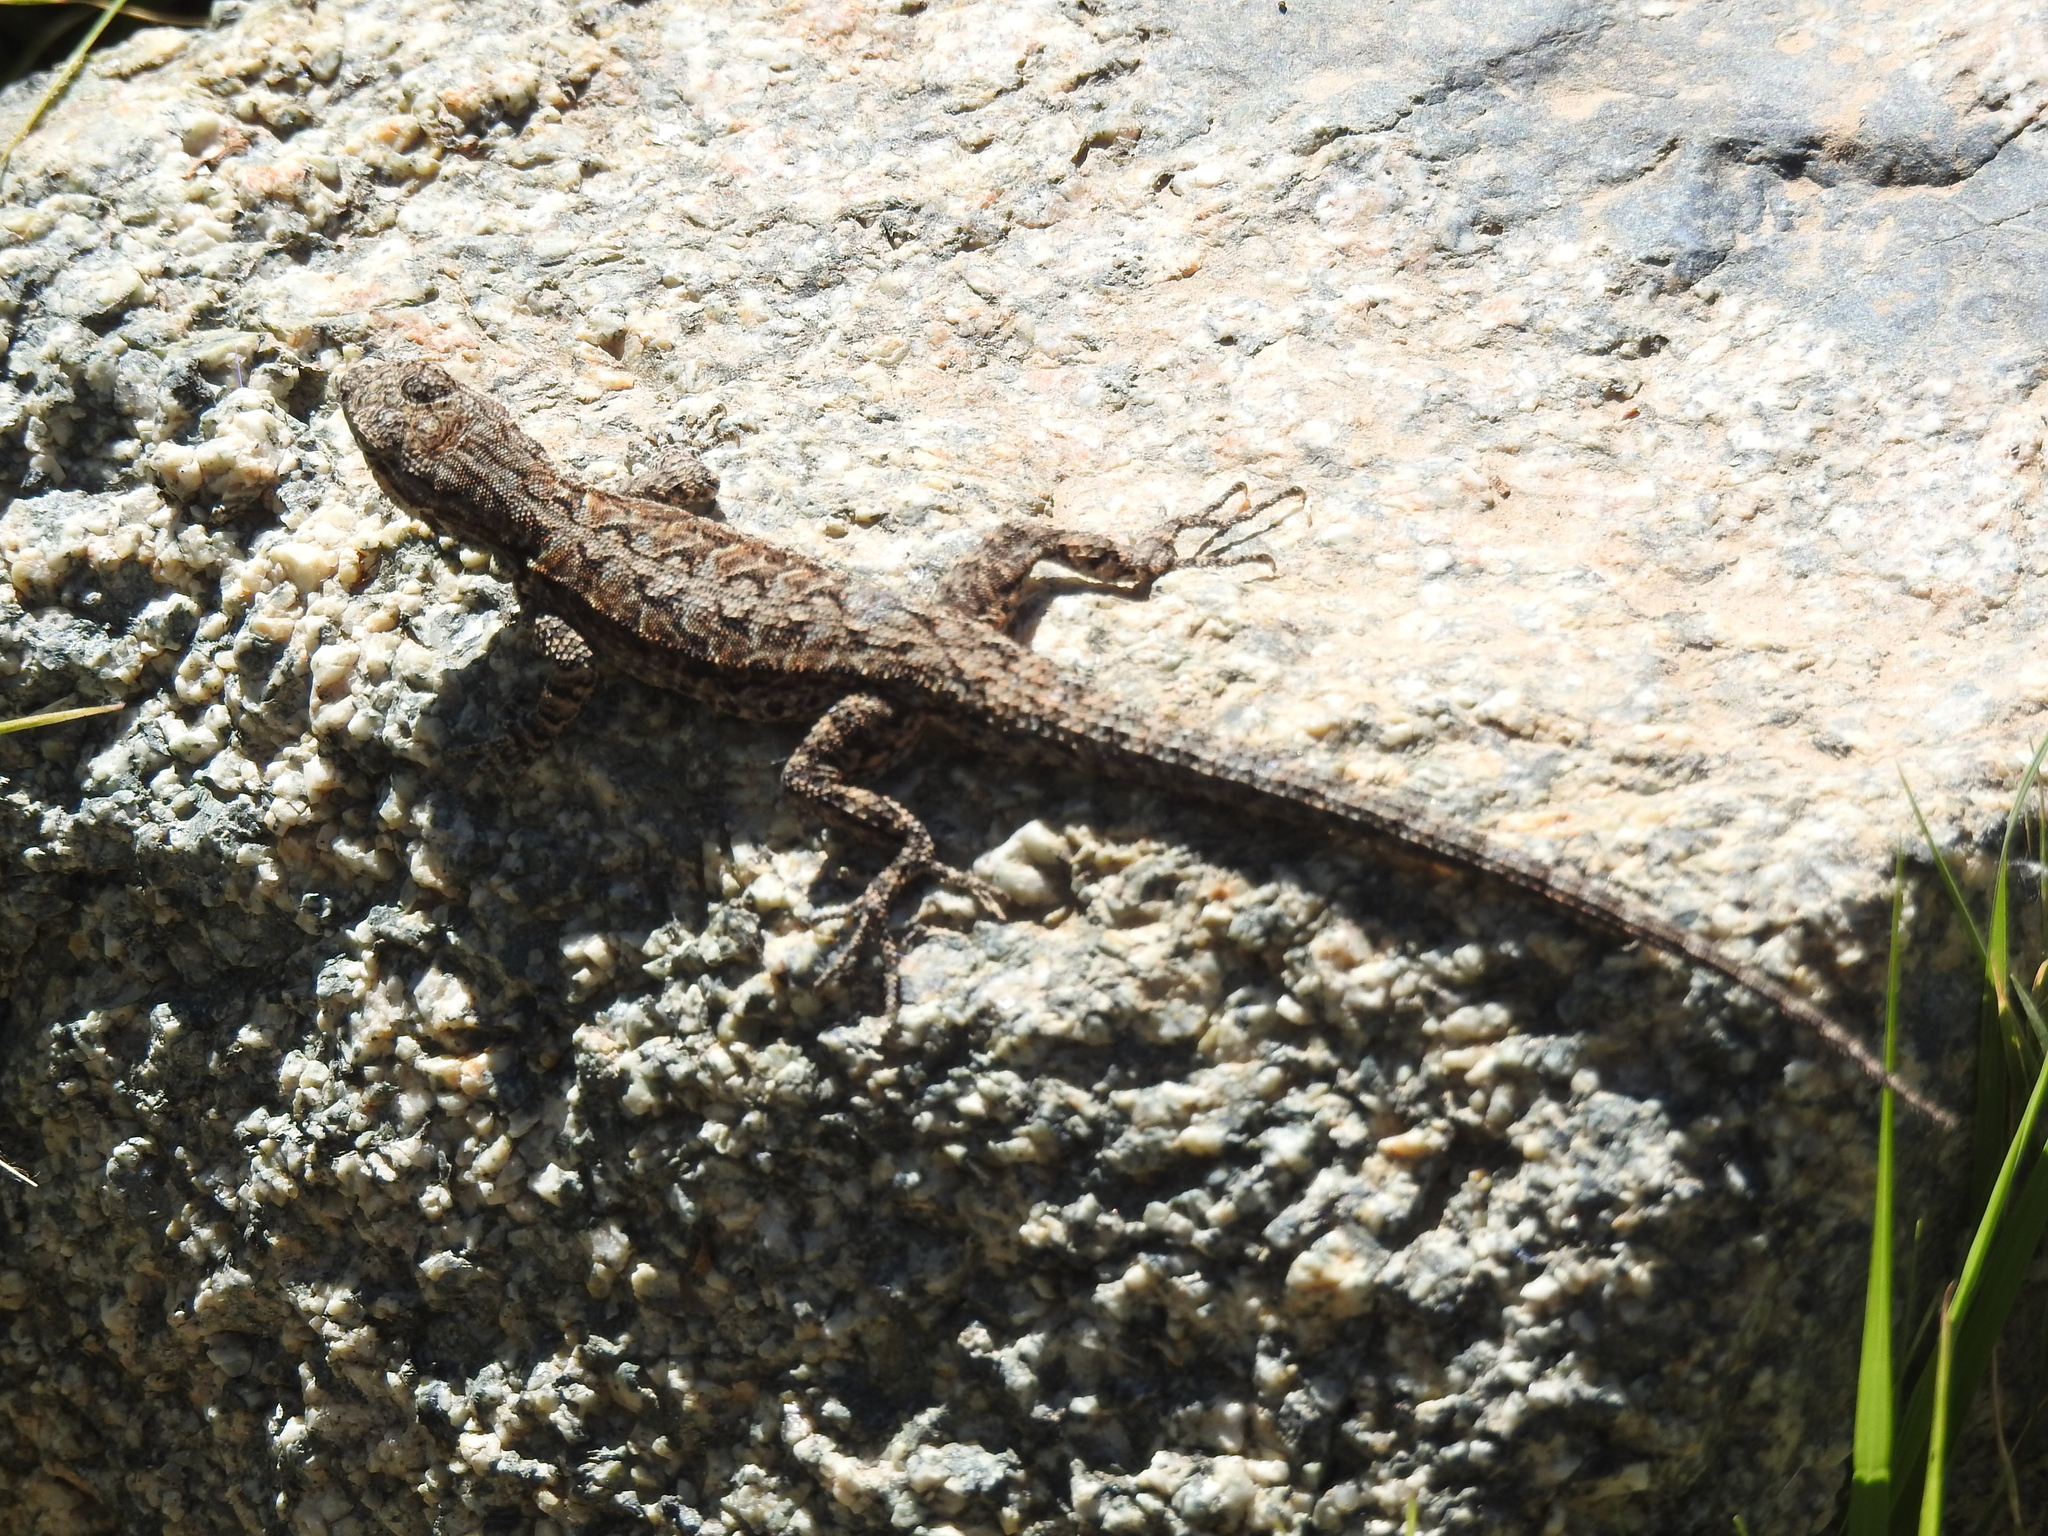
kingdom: Animalia
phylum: Chordata
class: Squamata
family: Phrynosomatidae
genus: Urosaurus
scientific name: Urosaurus ornatus
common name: Ornate tree lizard
